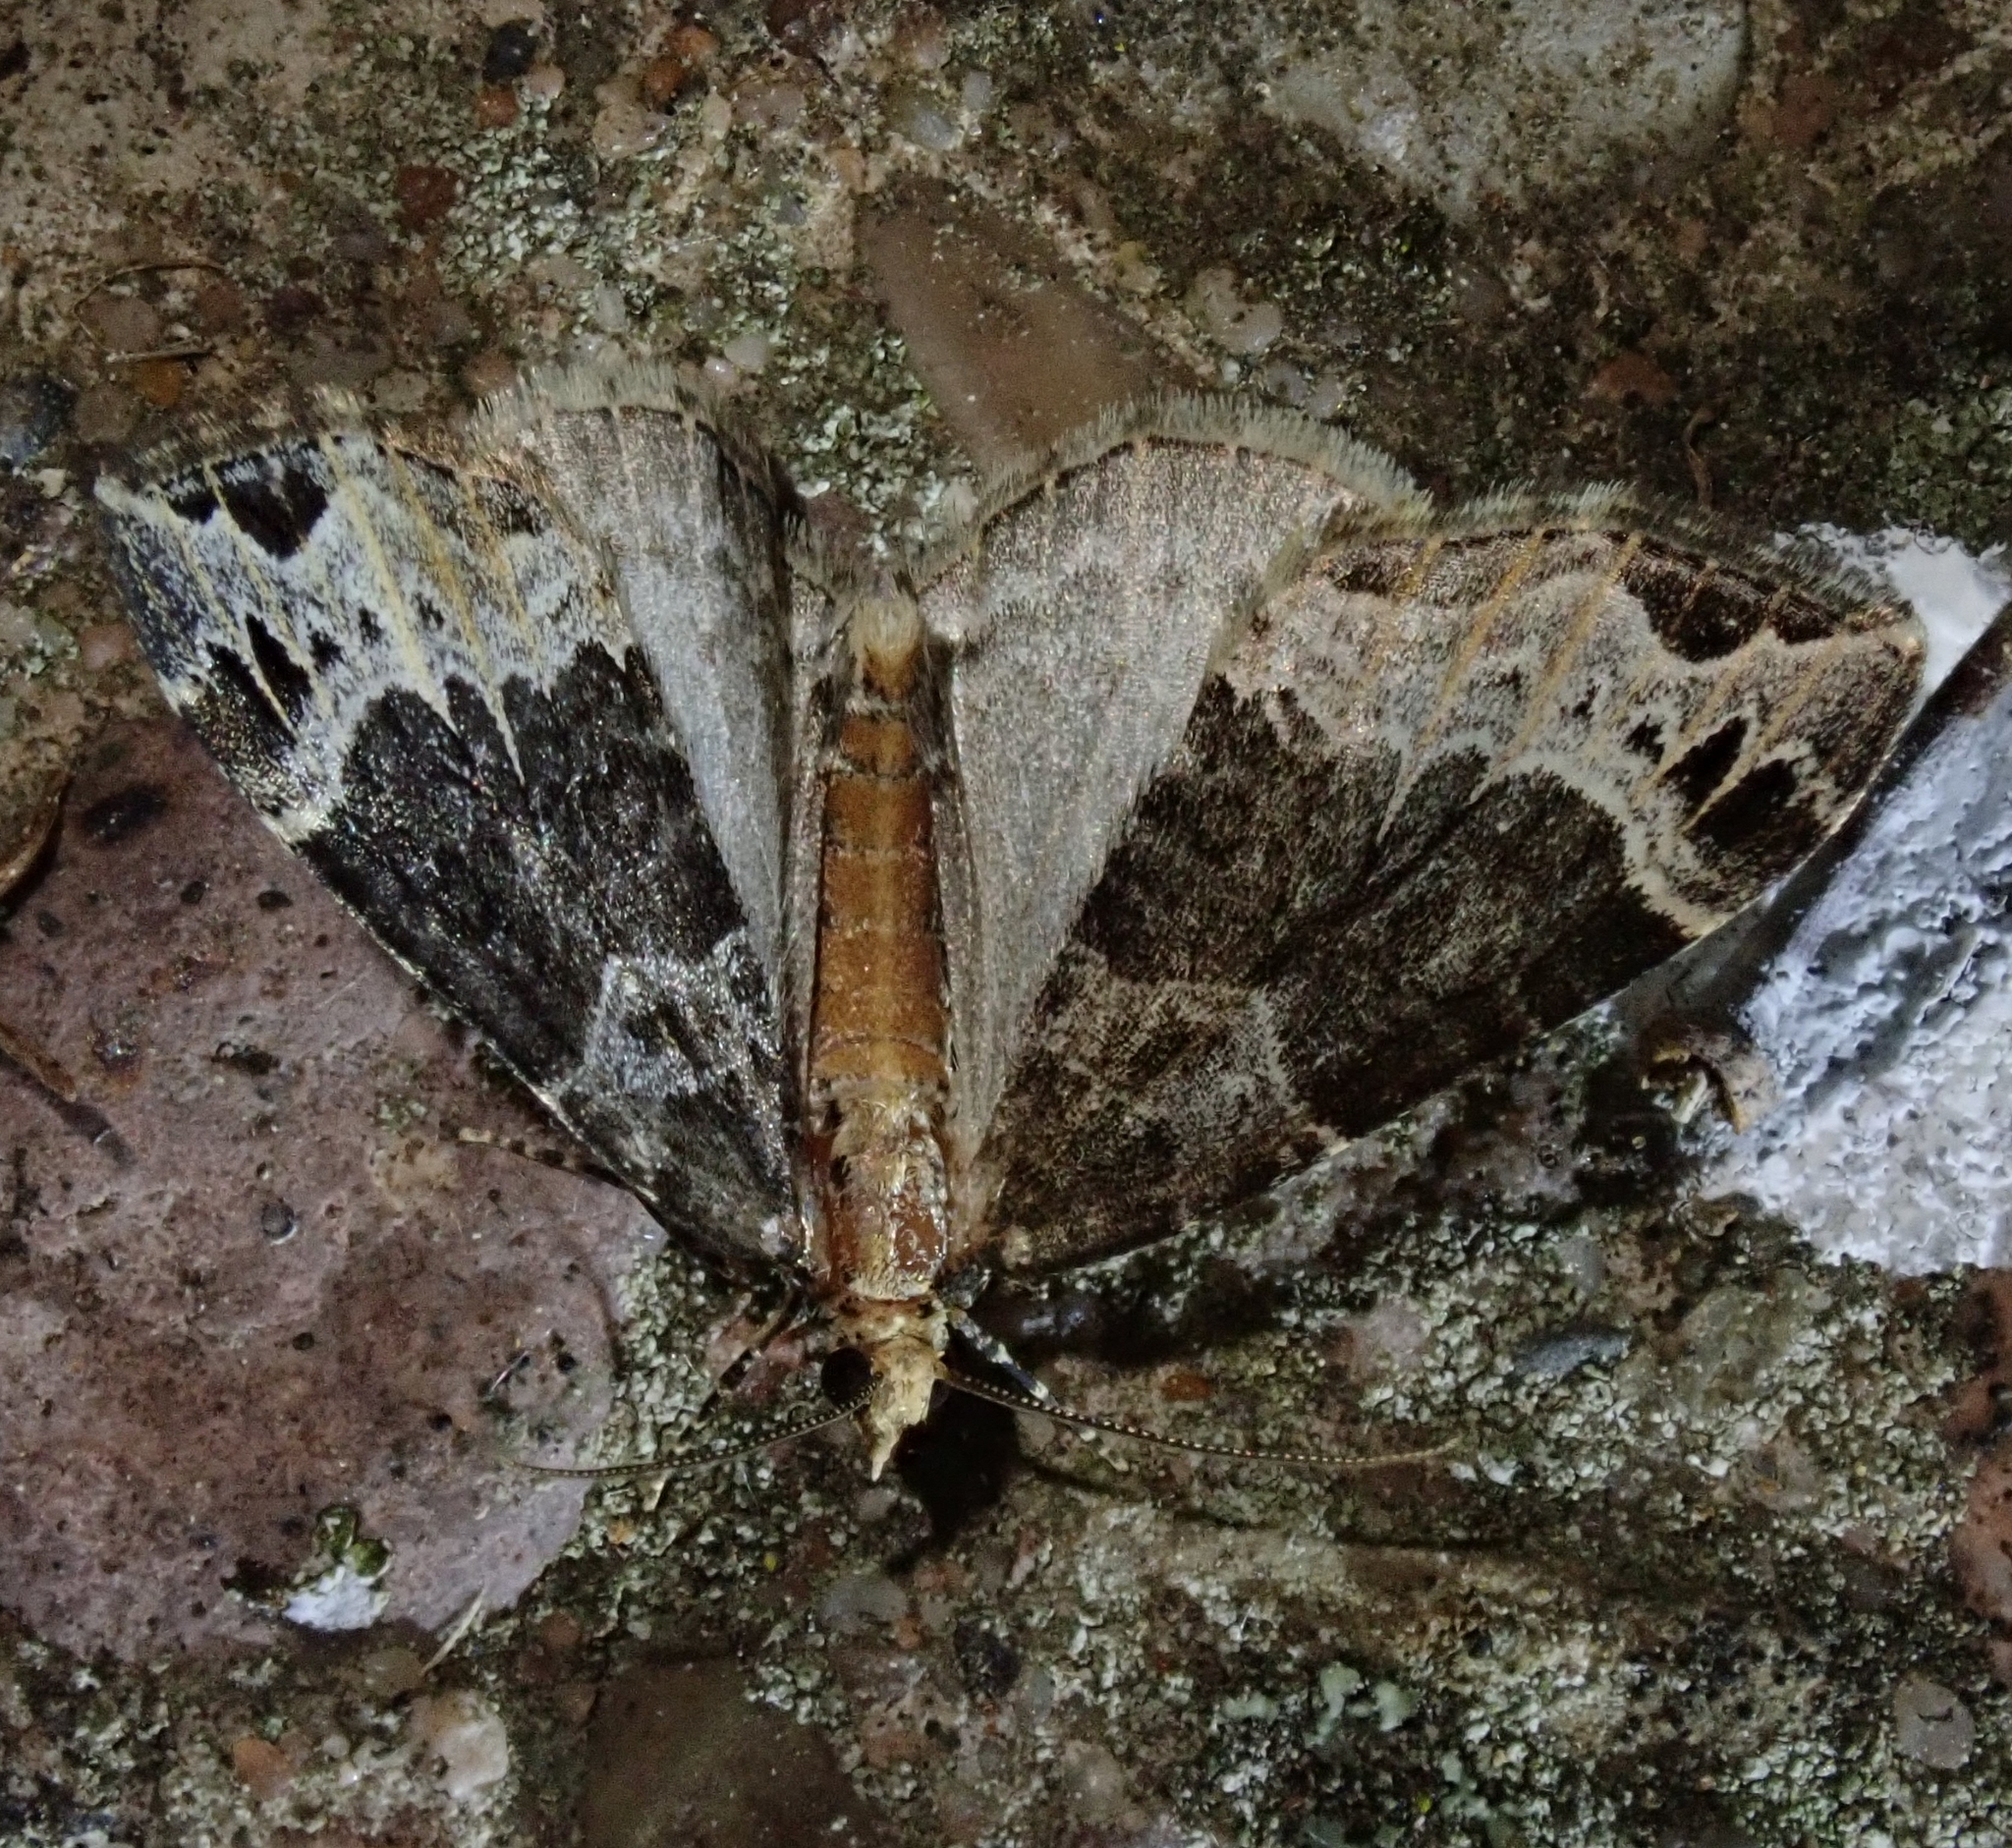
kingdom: Animalia
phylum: Arthropoda
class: Insecta
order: Lepidoptera
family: Geometridae
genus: Ecliptopera
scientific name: Ecliptopera capitata
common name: Yellow-headed phoenix
